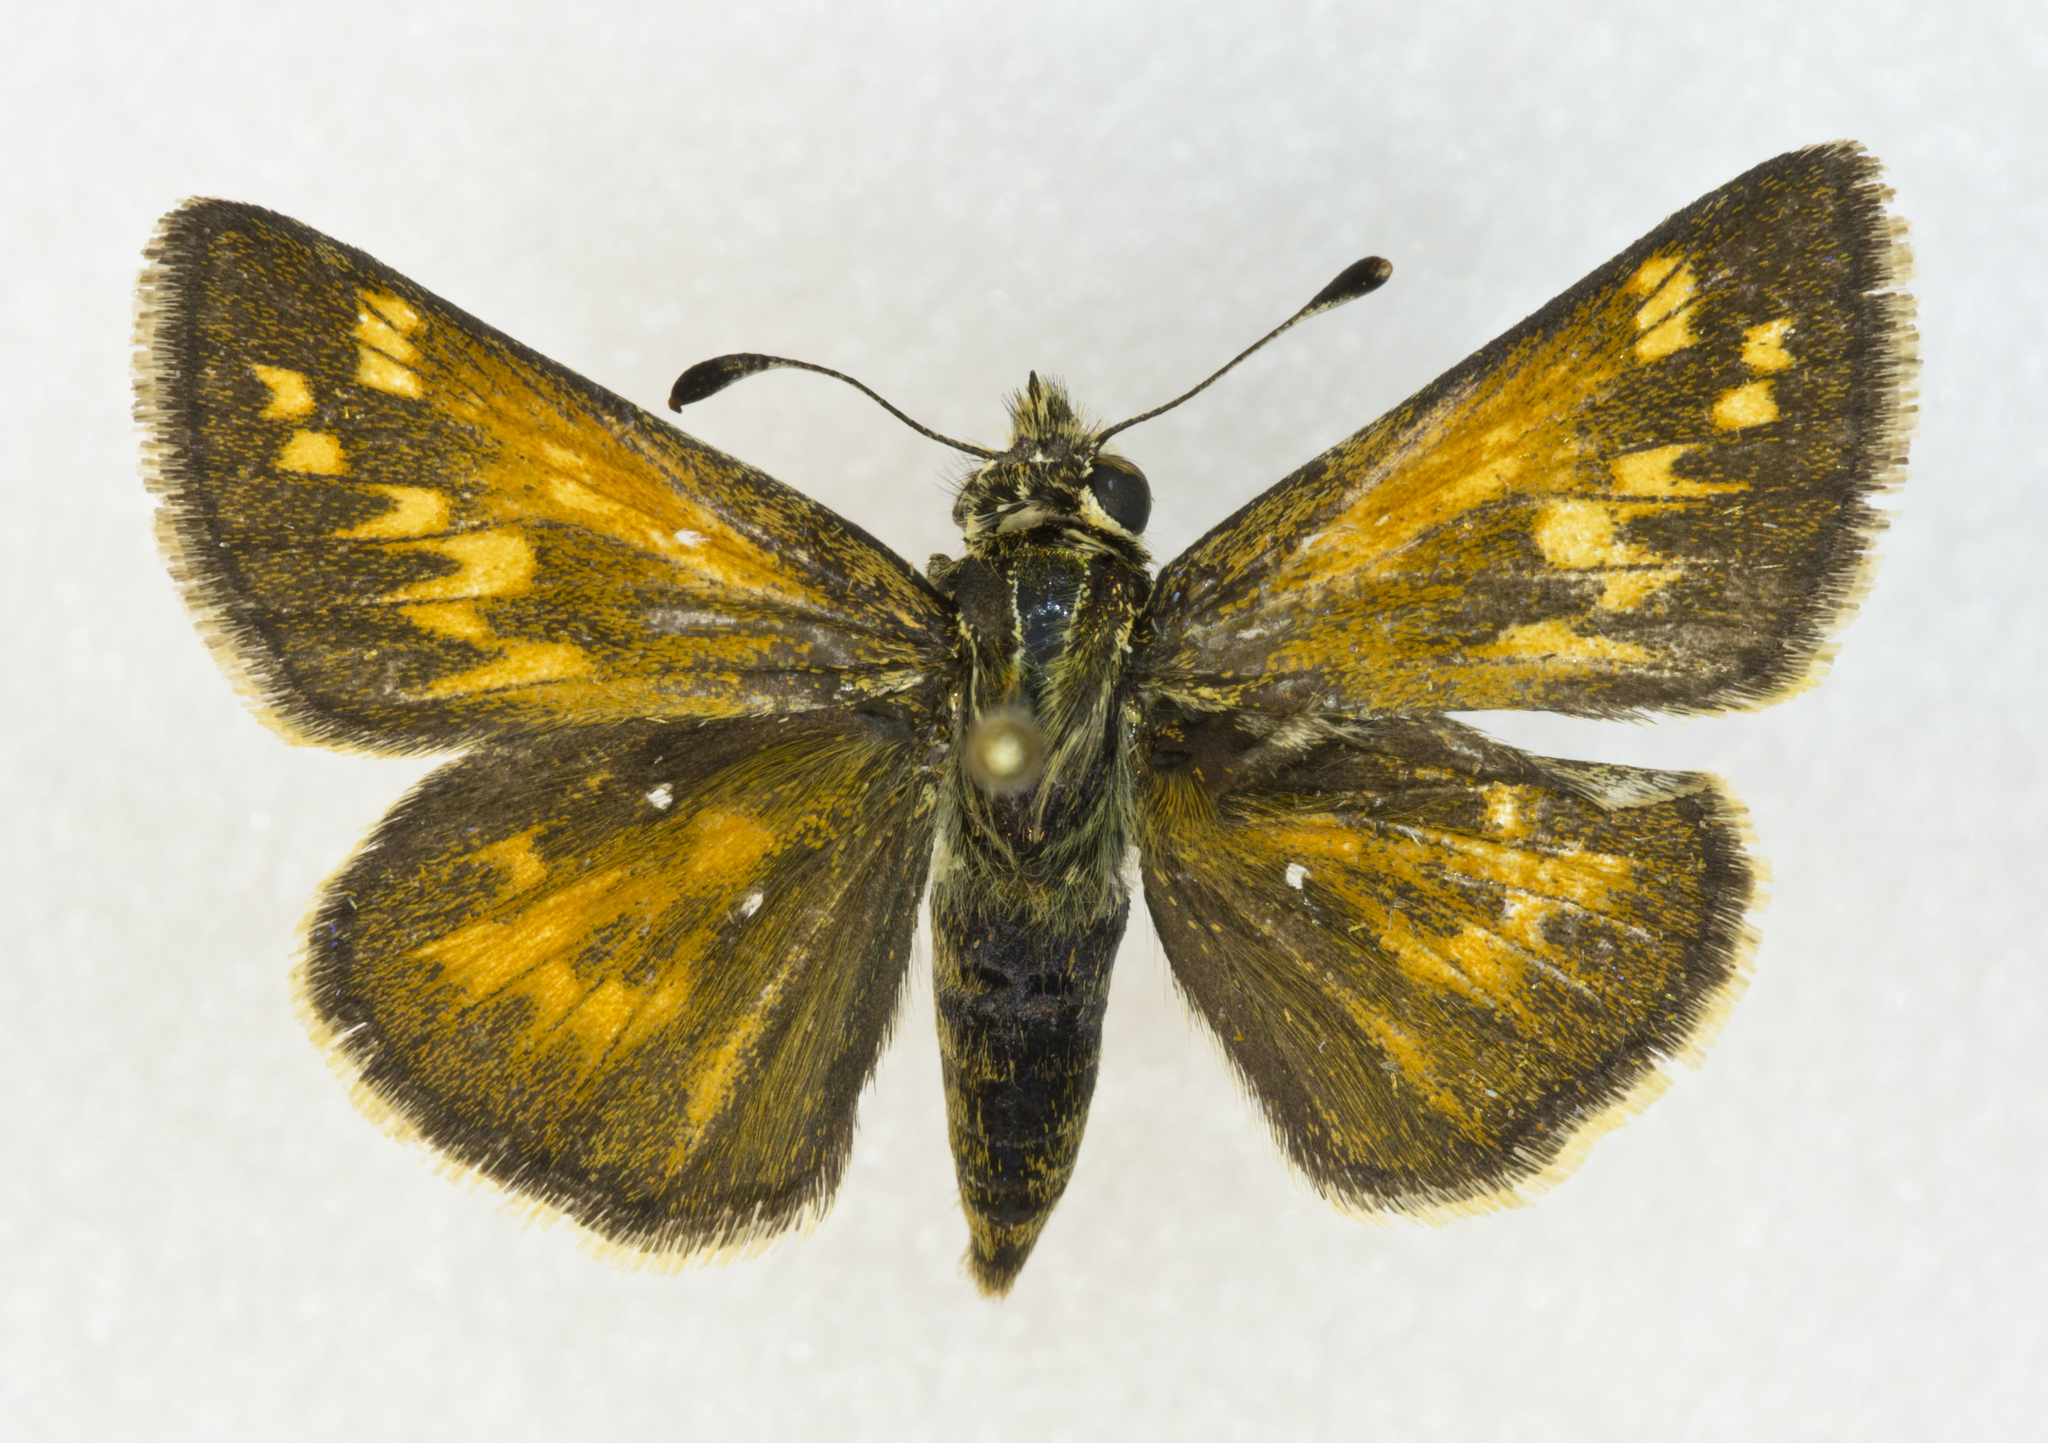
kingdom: Animalia
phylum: Arthropoda
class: Insecta
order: Lepidoptera
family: Hesperiidae
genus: Polites
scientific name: Polites sabuleti
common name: Sandhill skipper
